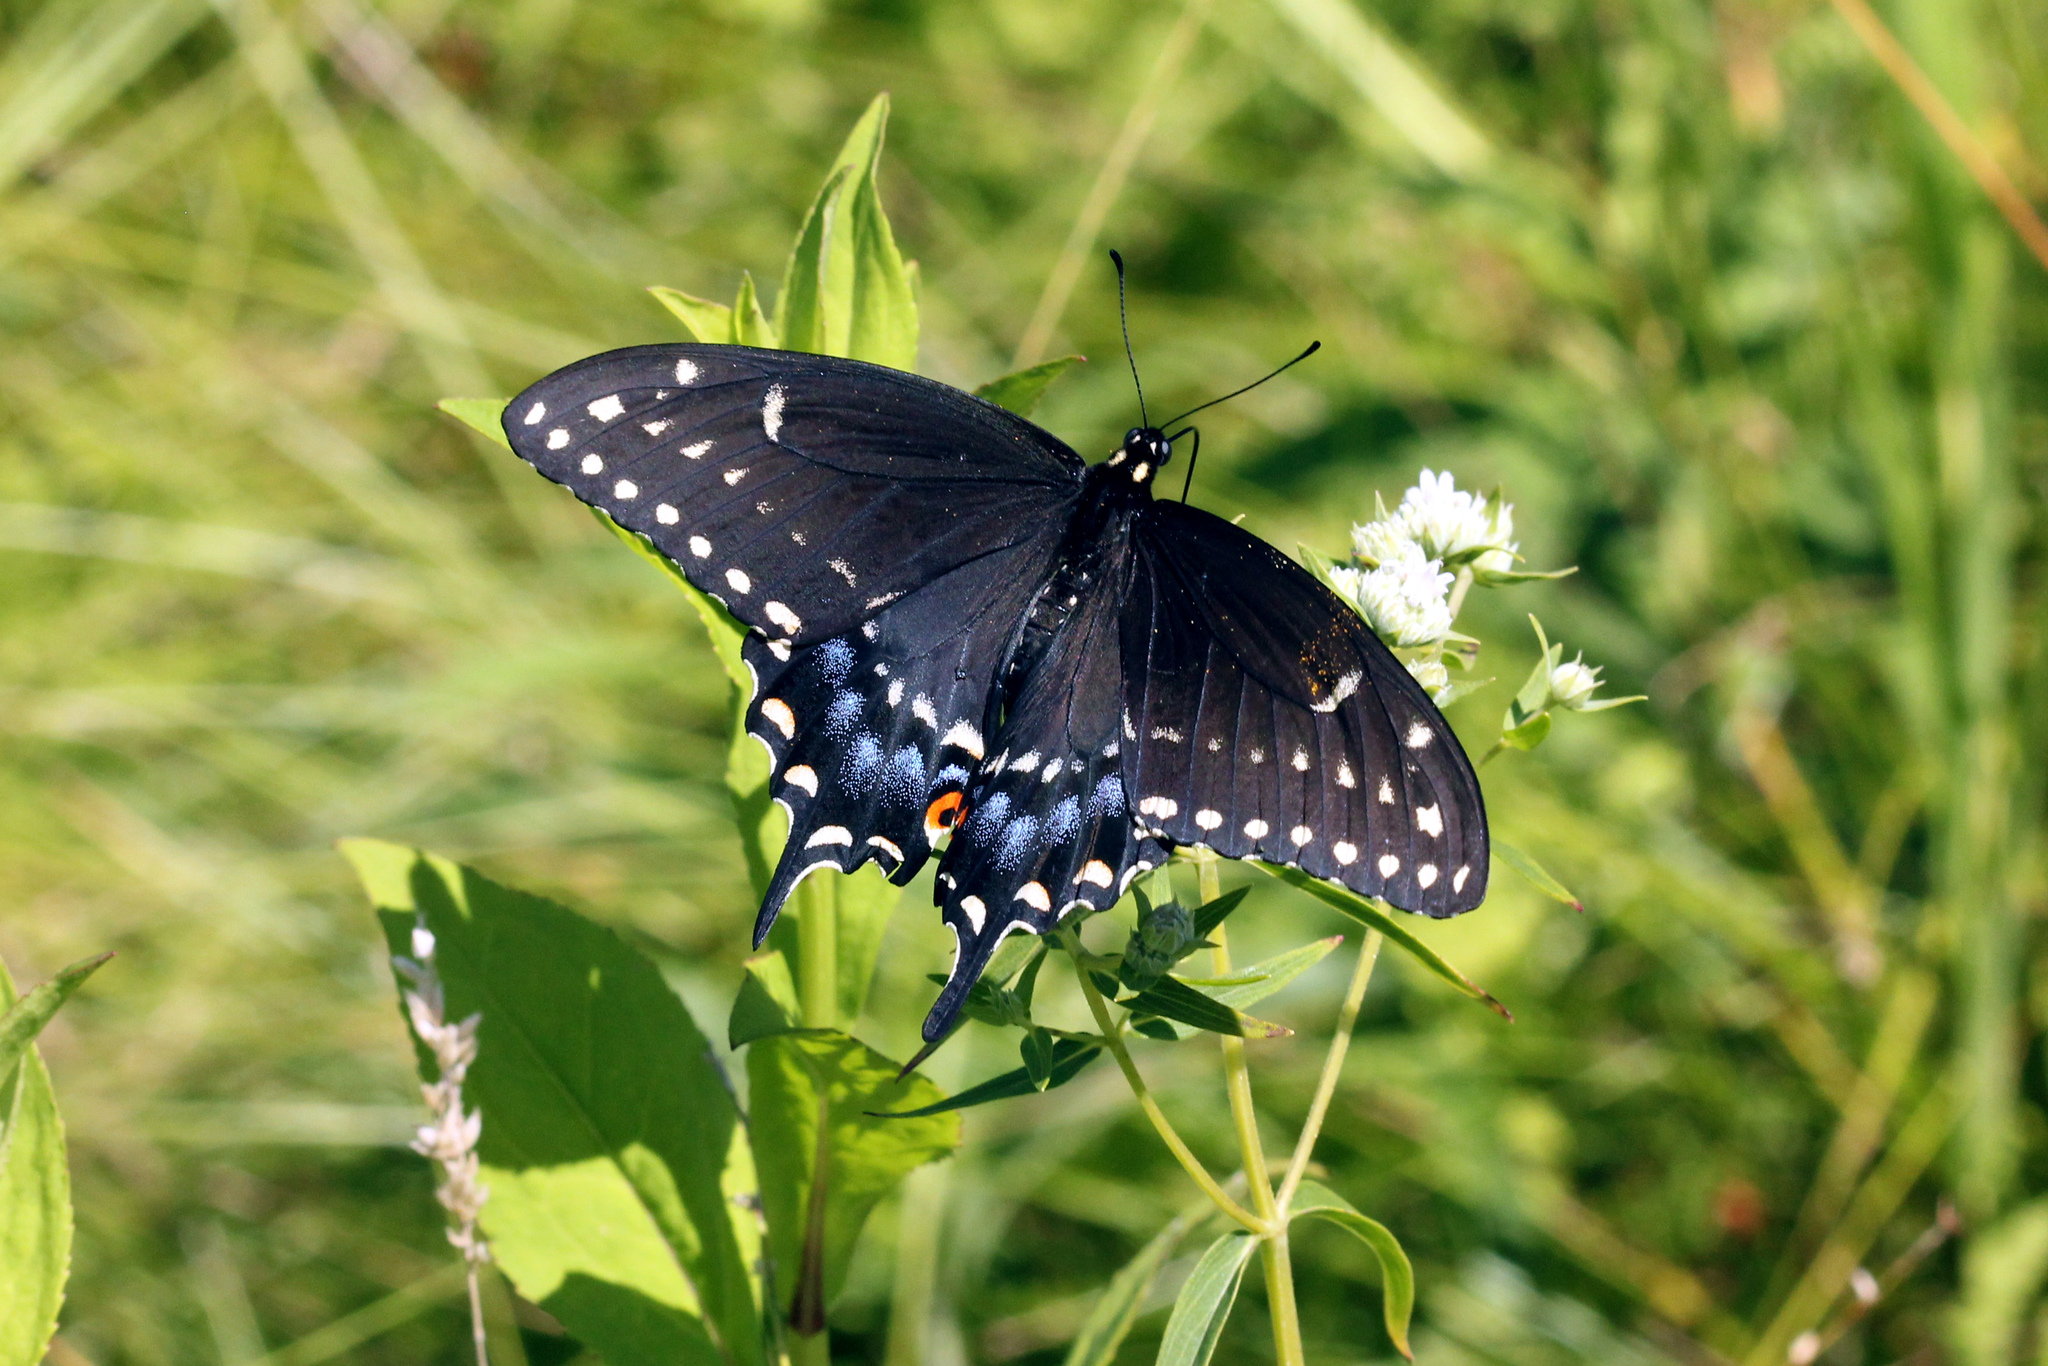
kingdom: Animalia
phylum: Arthropoda
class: Insecta
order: Lepidoptera
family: Papilionidae
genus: Papilio
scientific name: Papilio polyxenes
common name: Black swallowtail
